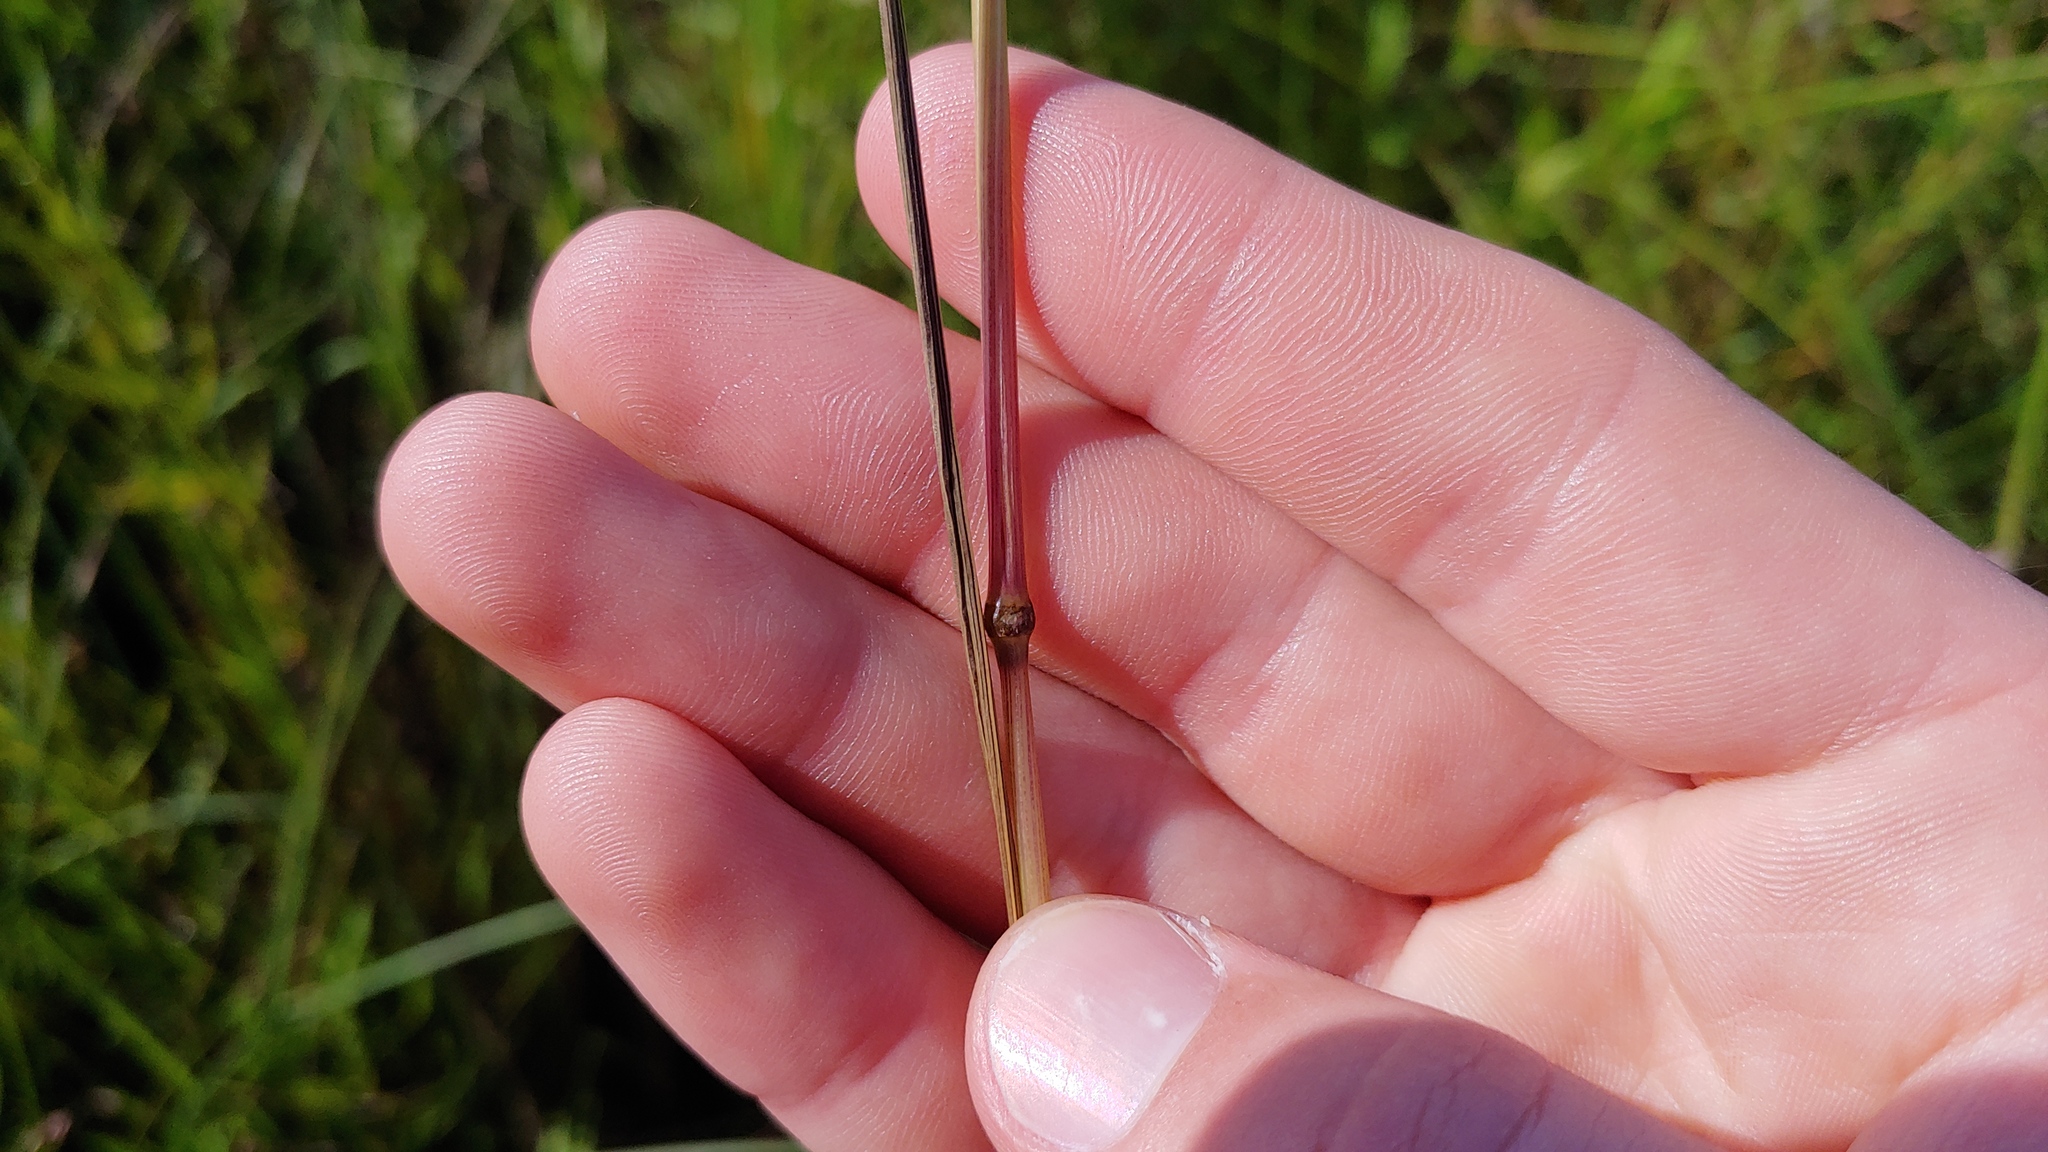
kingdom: Plantae
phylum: Tracheophyta
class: Liliopsida
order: Poales
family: Poaceae
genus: Festuca
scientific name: Festuca paradoxa
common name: Cluster fescue
